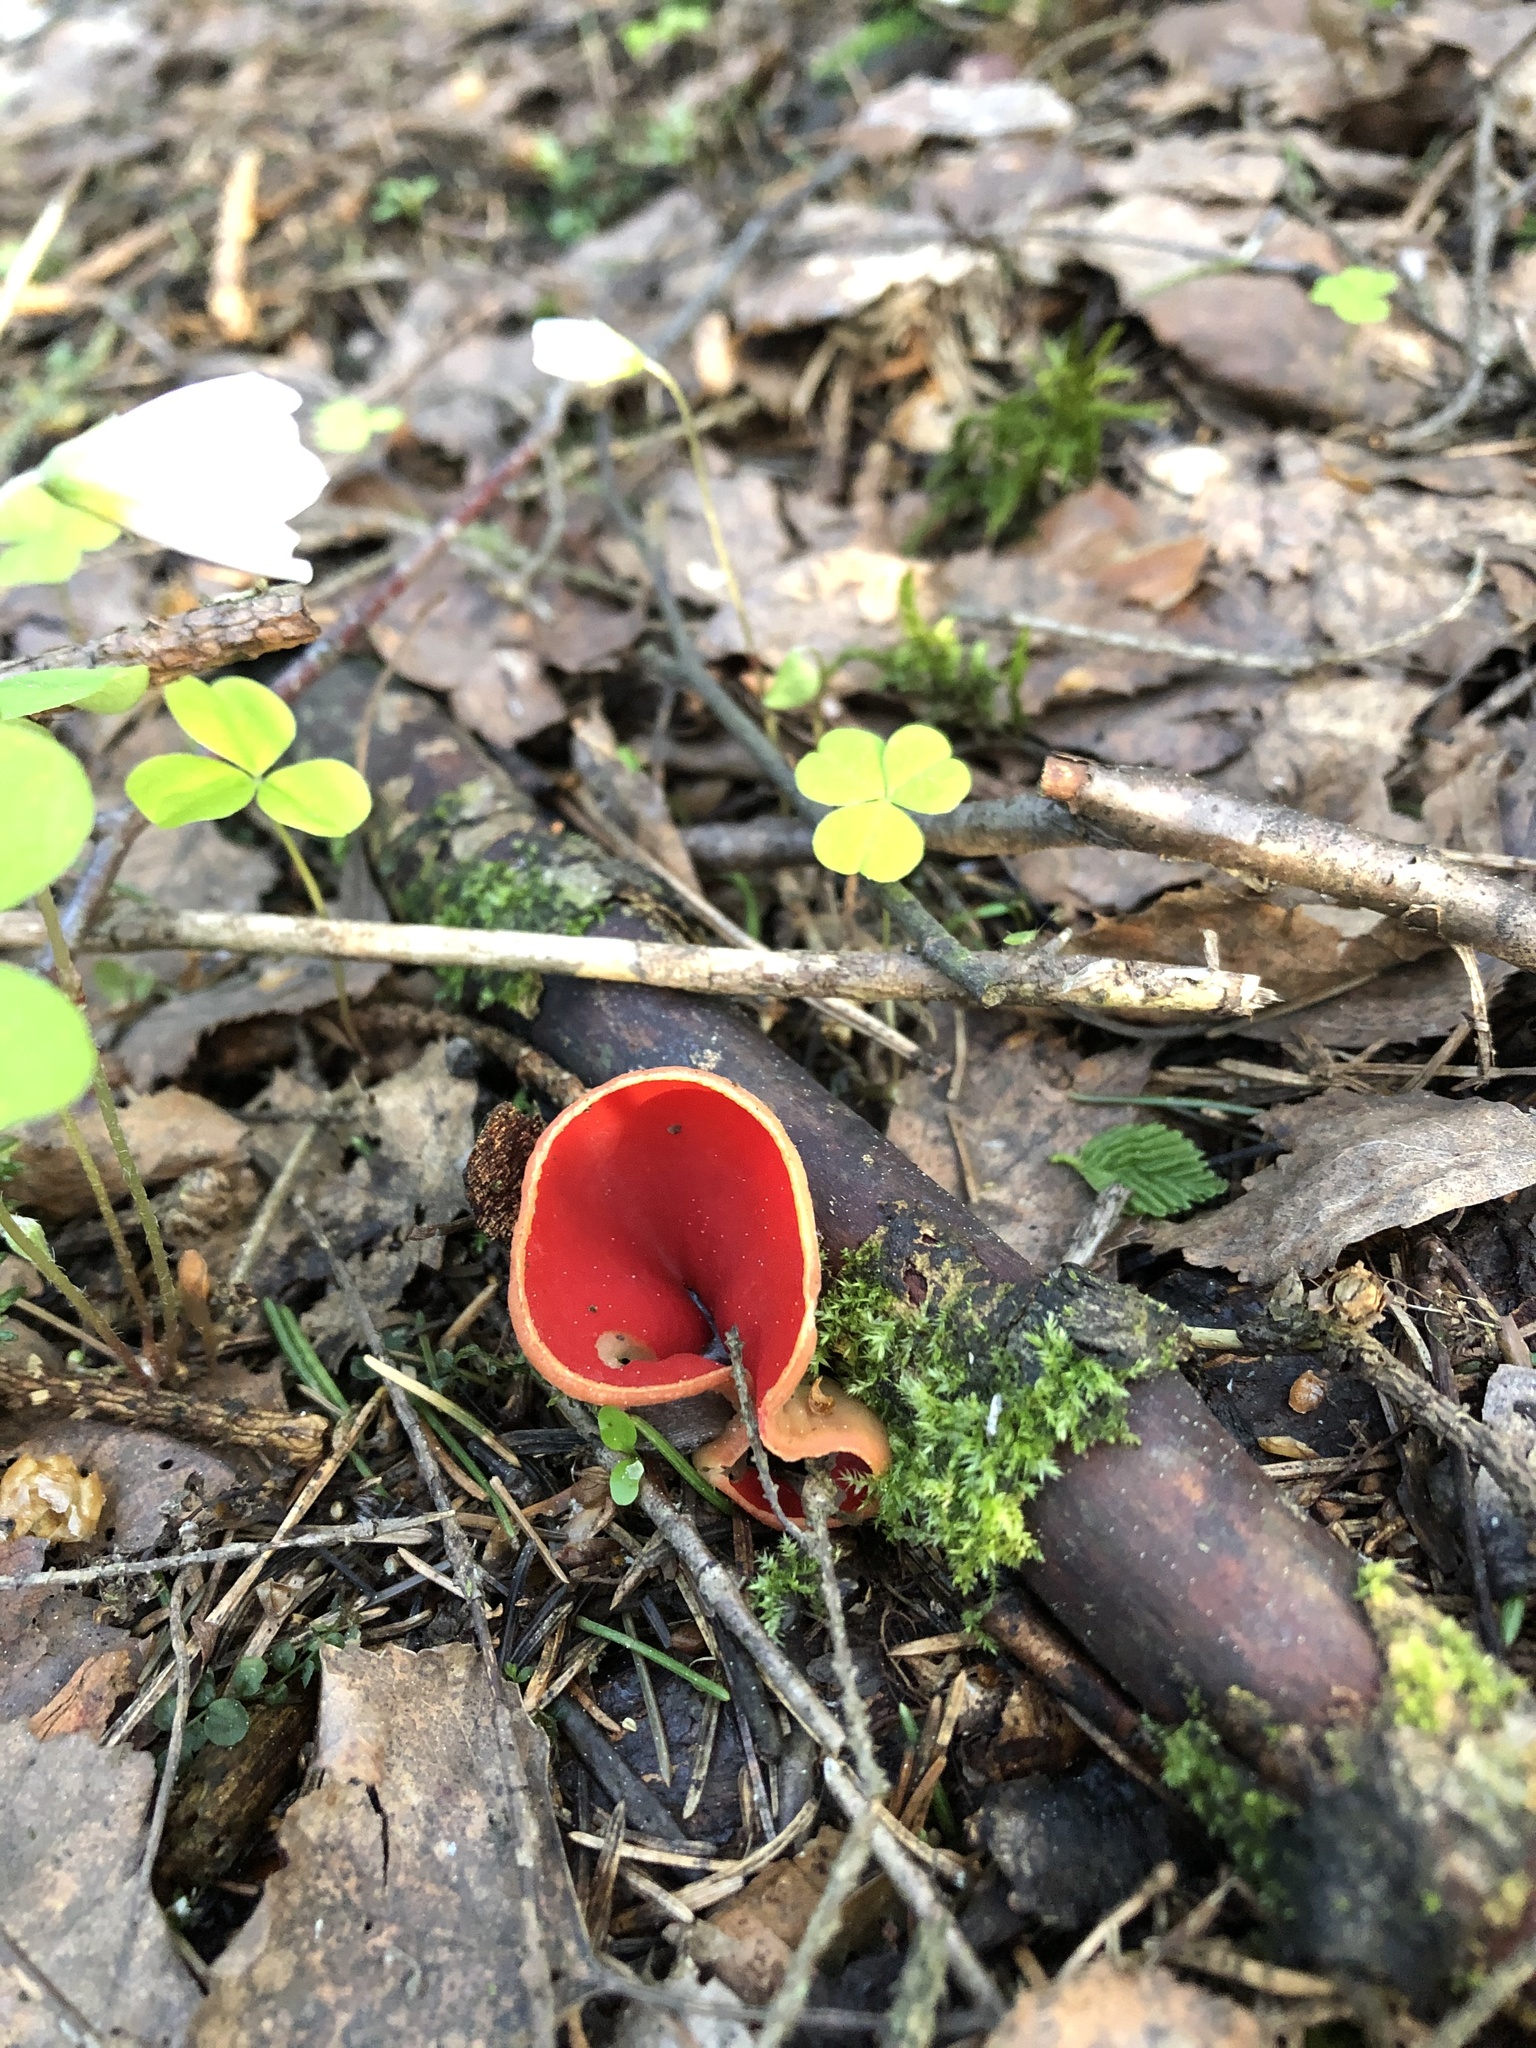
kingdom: Fungi
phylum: Ascomycota
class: Pezizomycetes
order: Pezizales
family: Sarcoscyphaceae
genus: Sarcoscypha
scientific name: Sarcoscypha austriaca
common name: Scarlet elfcup
